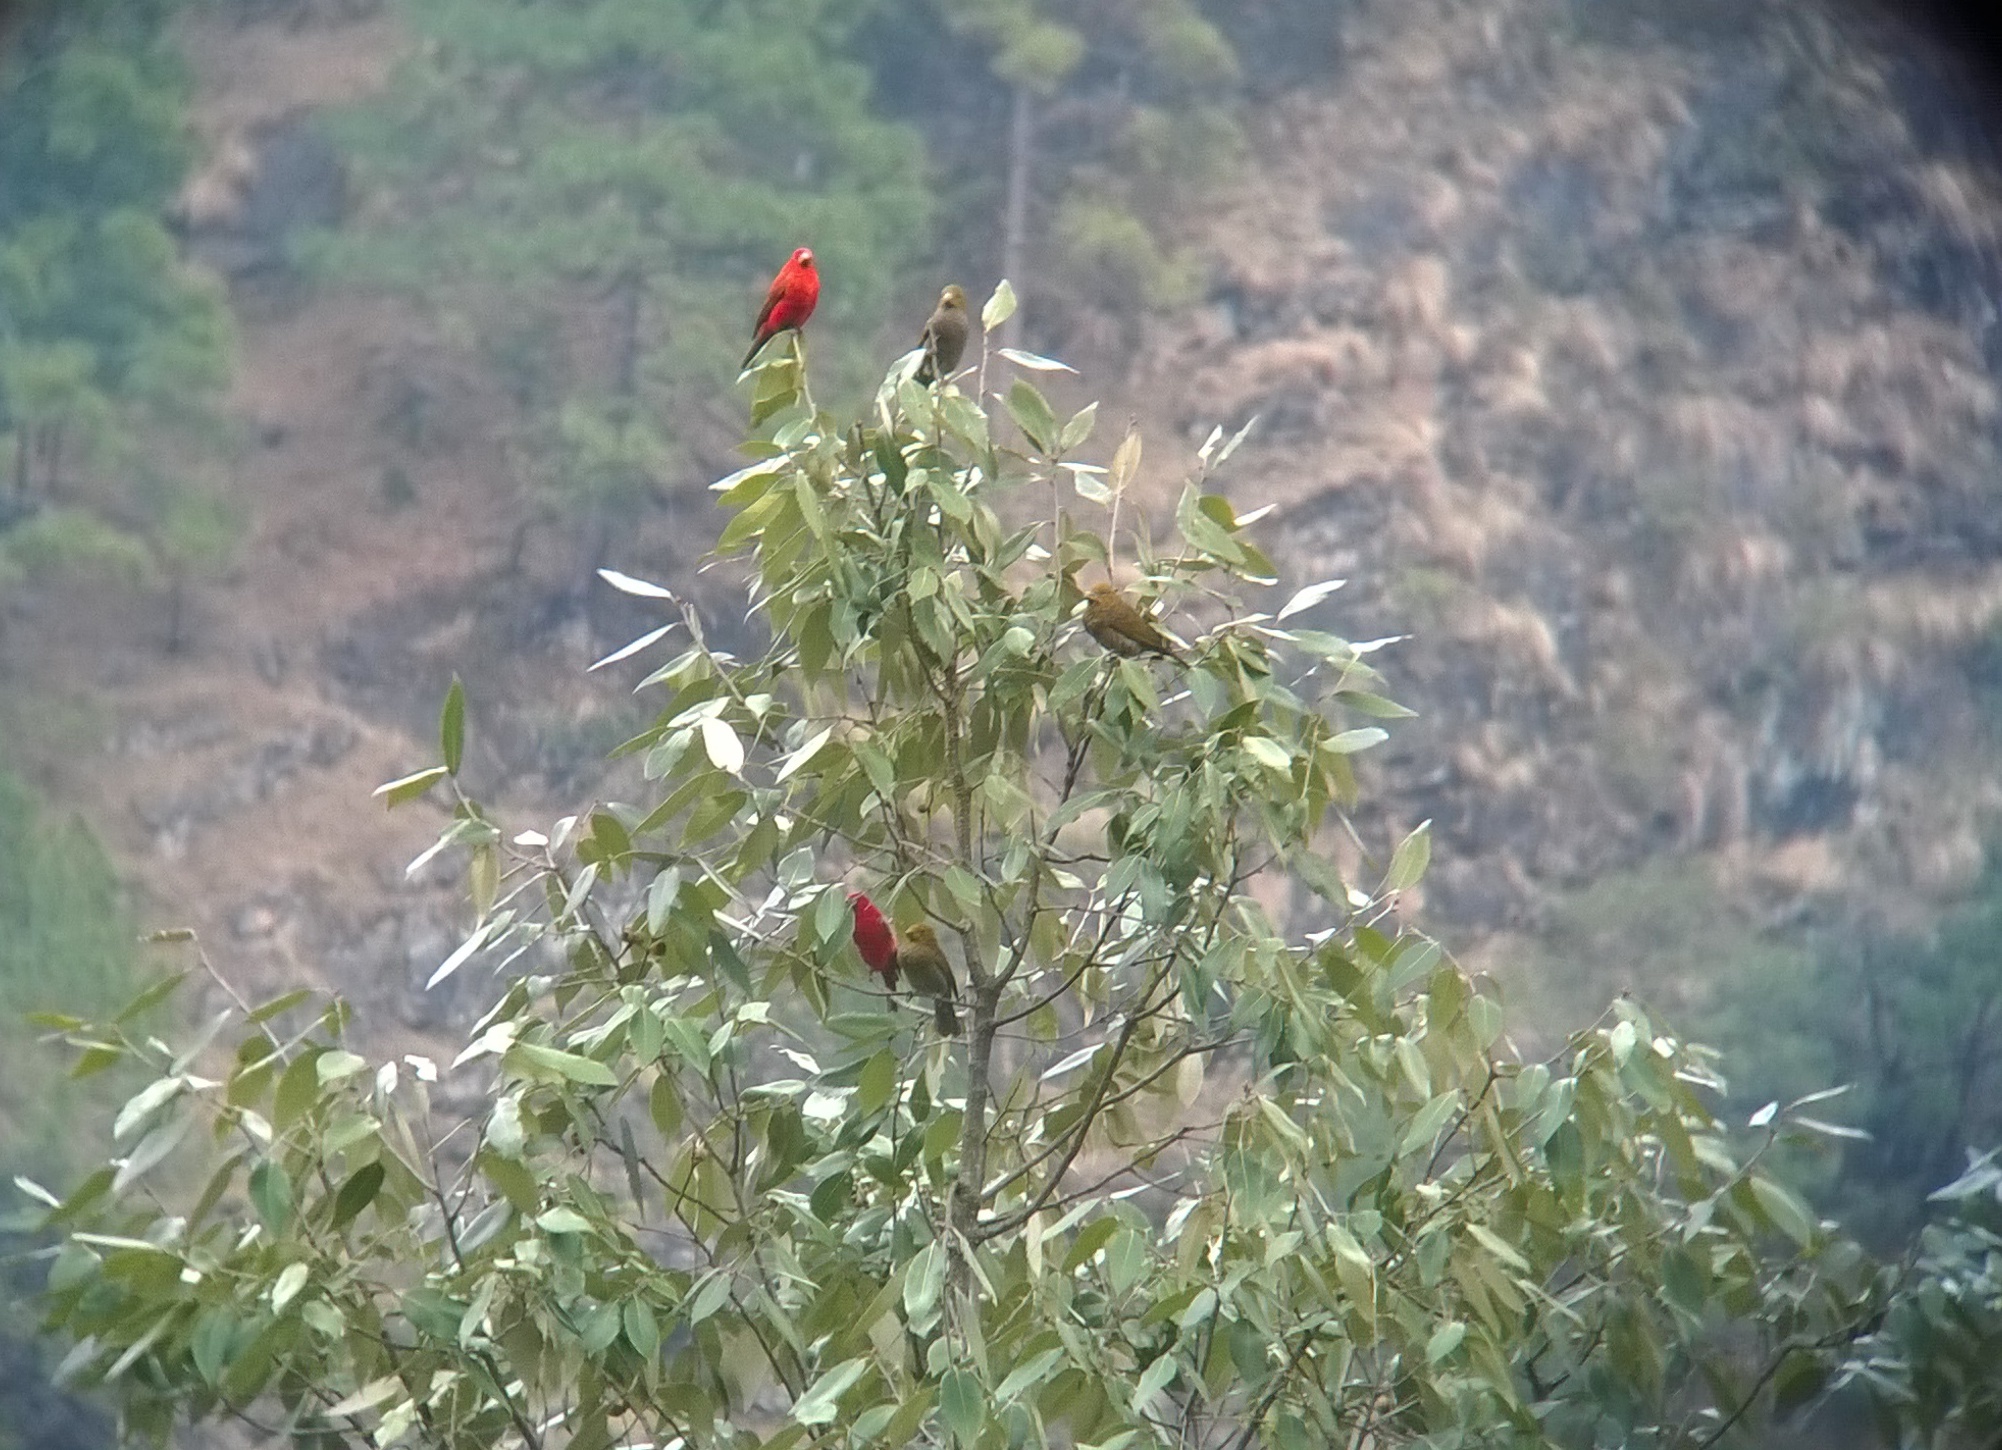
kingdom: Animalia
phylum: Chordata
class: Aves
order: Passeriformes
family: Fringillidae
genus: Carpodacus
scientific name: Carpodacus sipahi
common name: Scarlet finch
